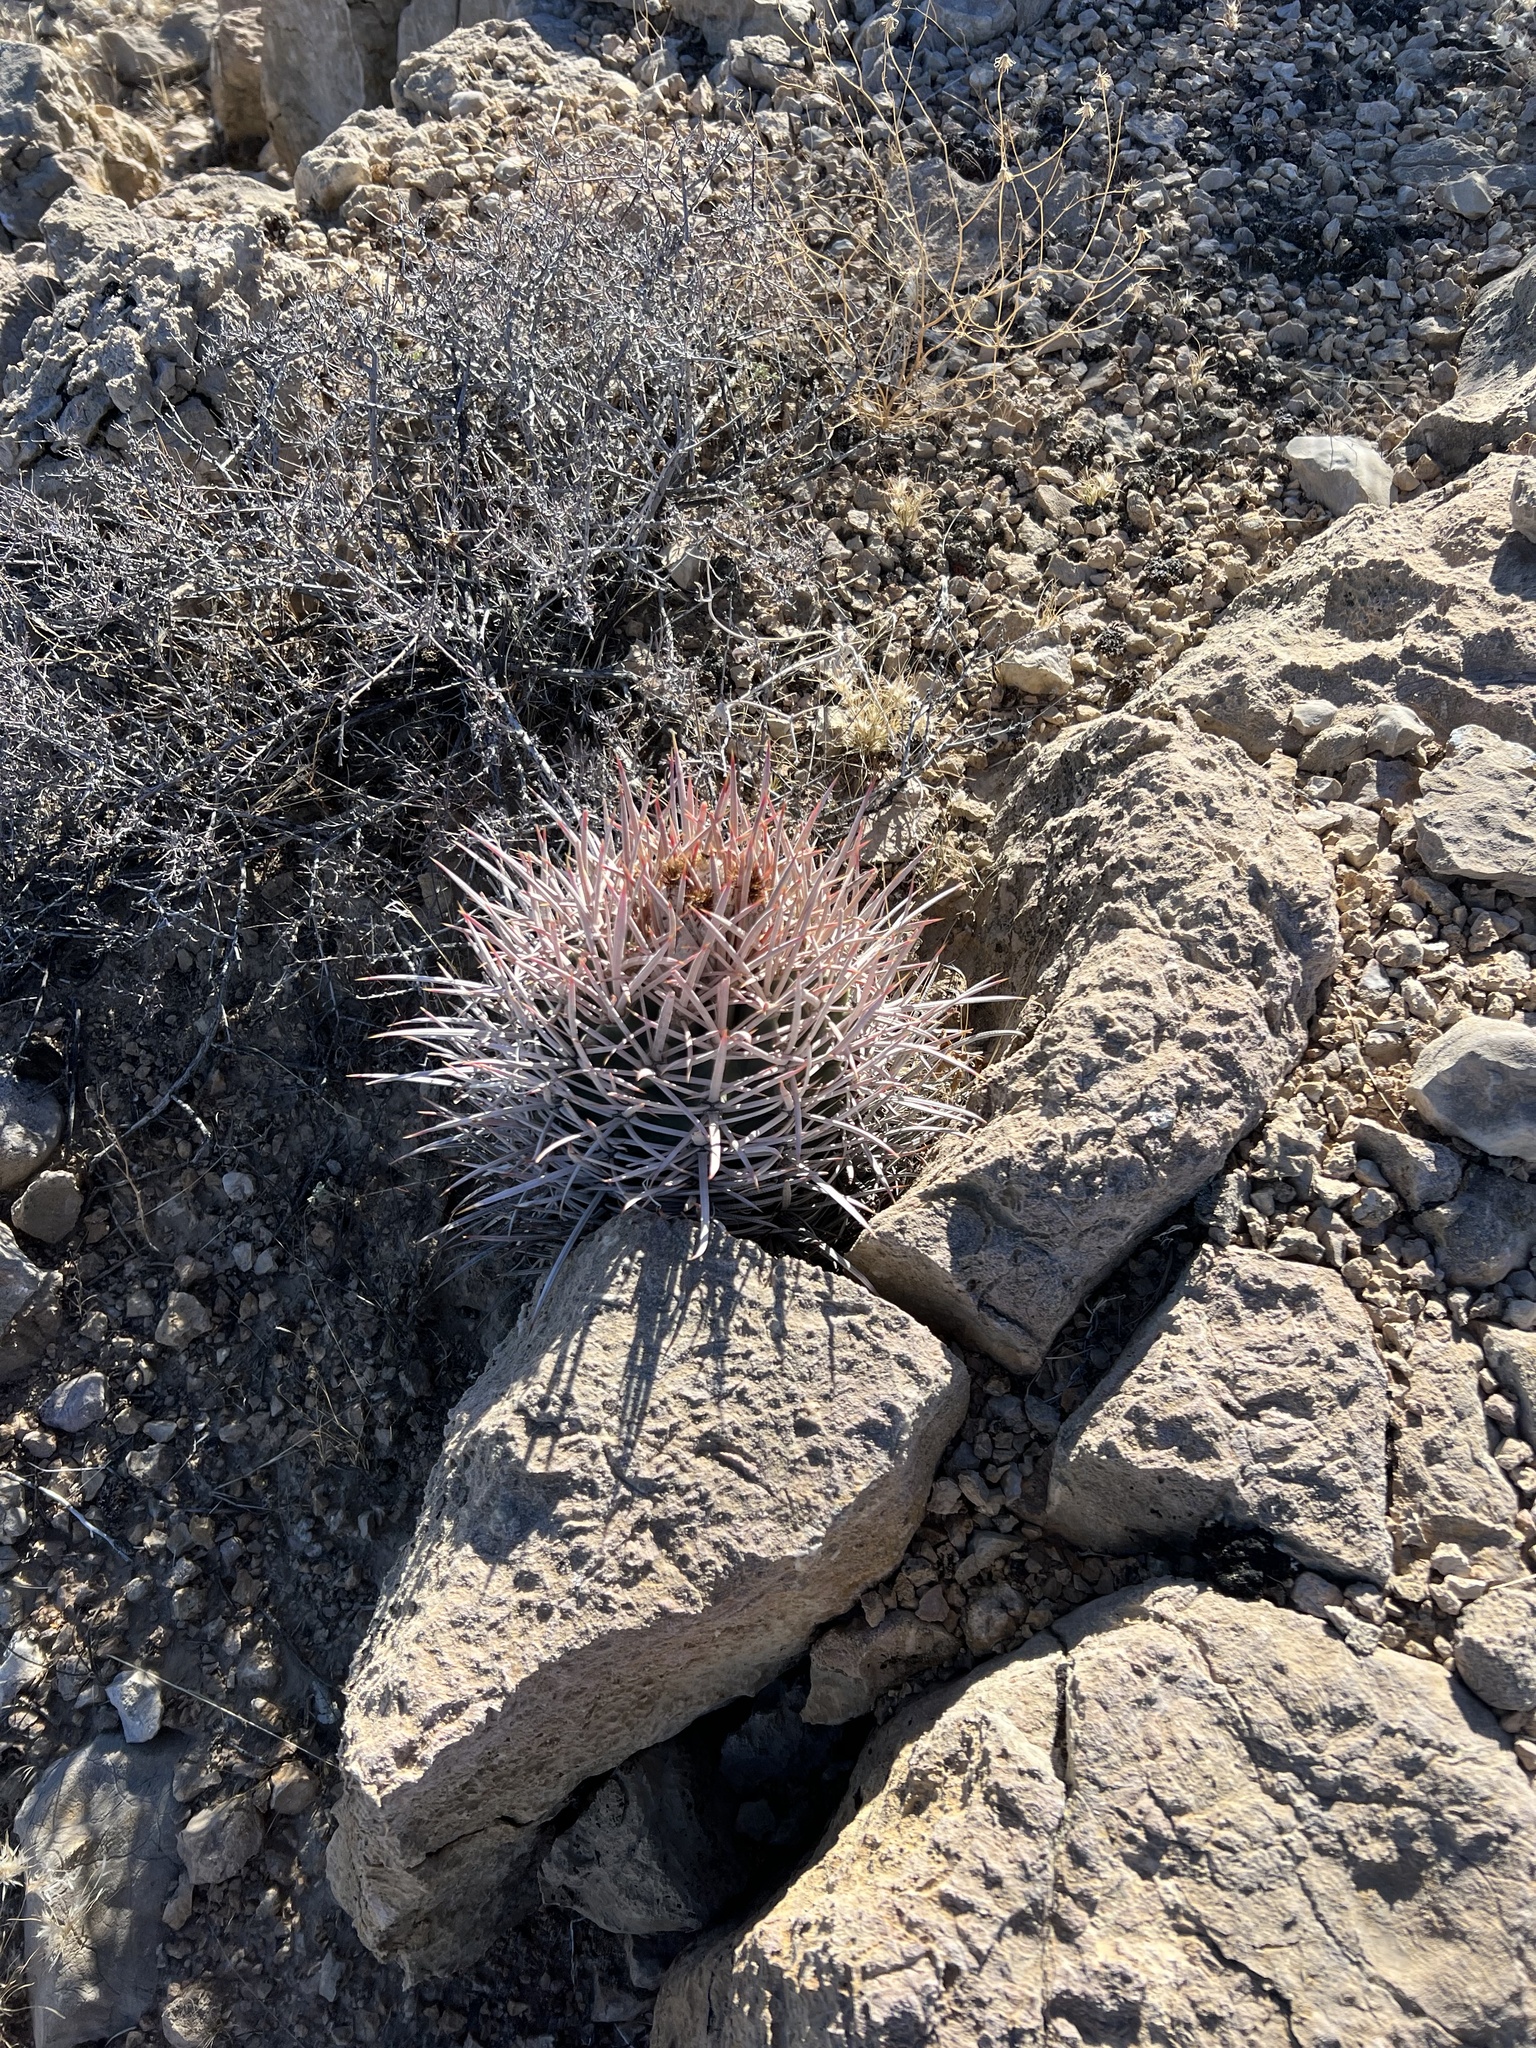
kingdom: Plantae
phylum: Tracheophyta
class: Magnoliopsida
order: Caryophyllales
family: Cactaceae
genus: Echinocactus
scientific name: Echinocactus polycephalus
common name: Cottontop cactus
